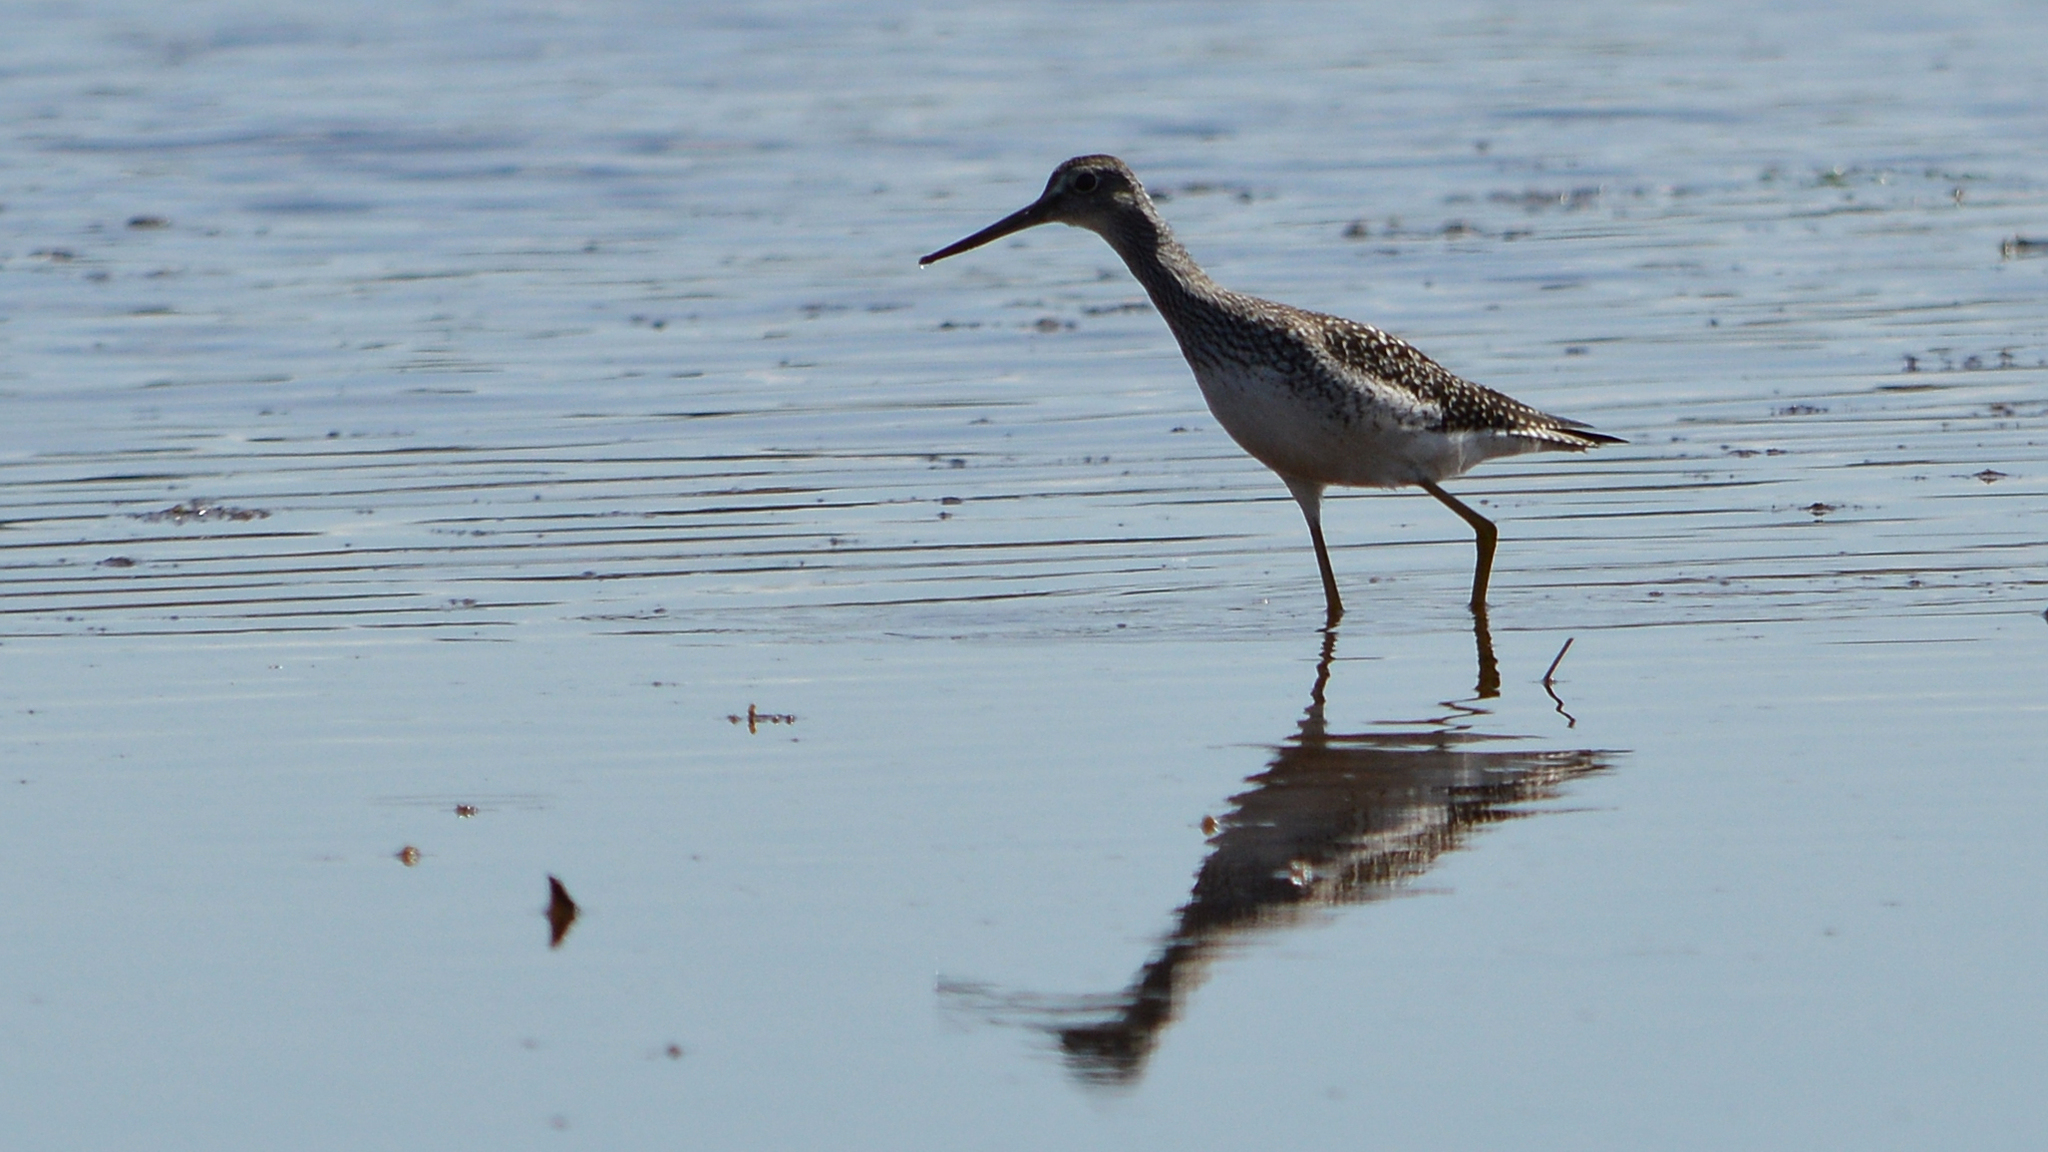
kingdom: Animalia
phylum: Chordata
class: Aves
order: Charadriiformes
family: Scolopacidae
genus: Tringa
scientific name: Tringa melanoleuca
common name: Greater yellowlegs
